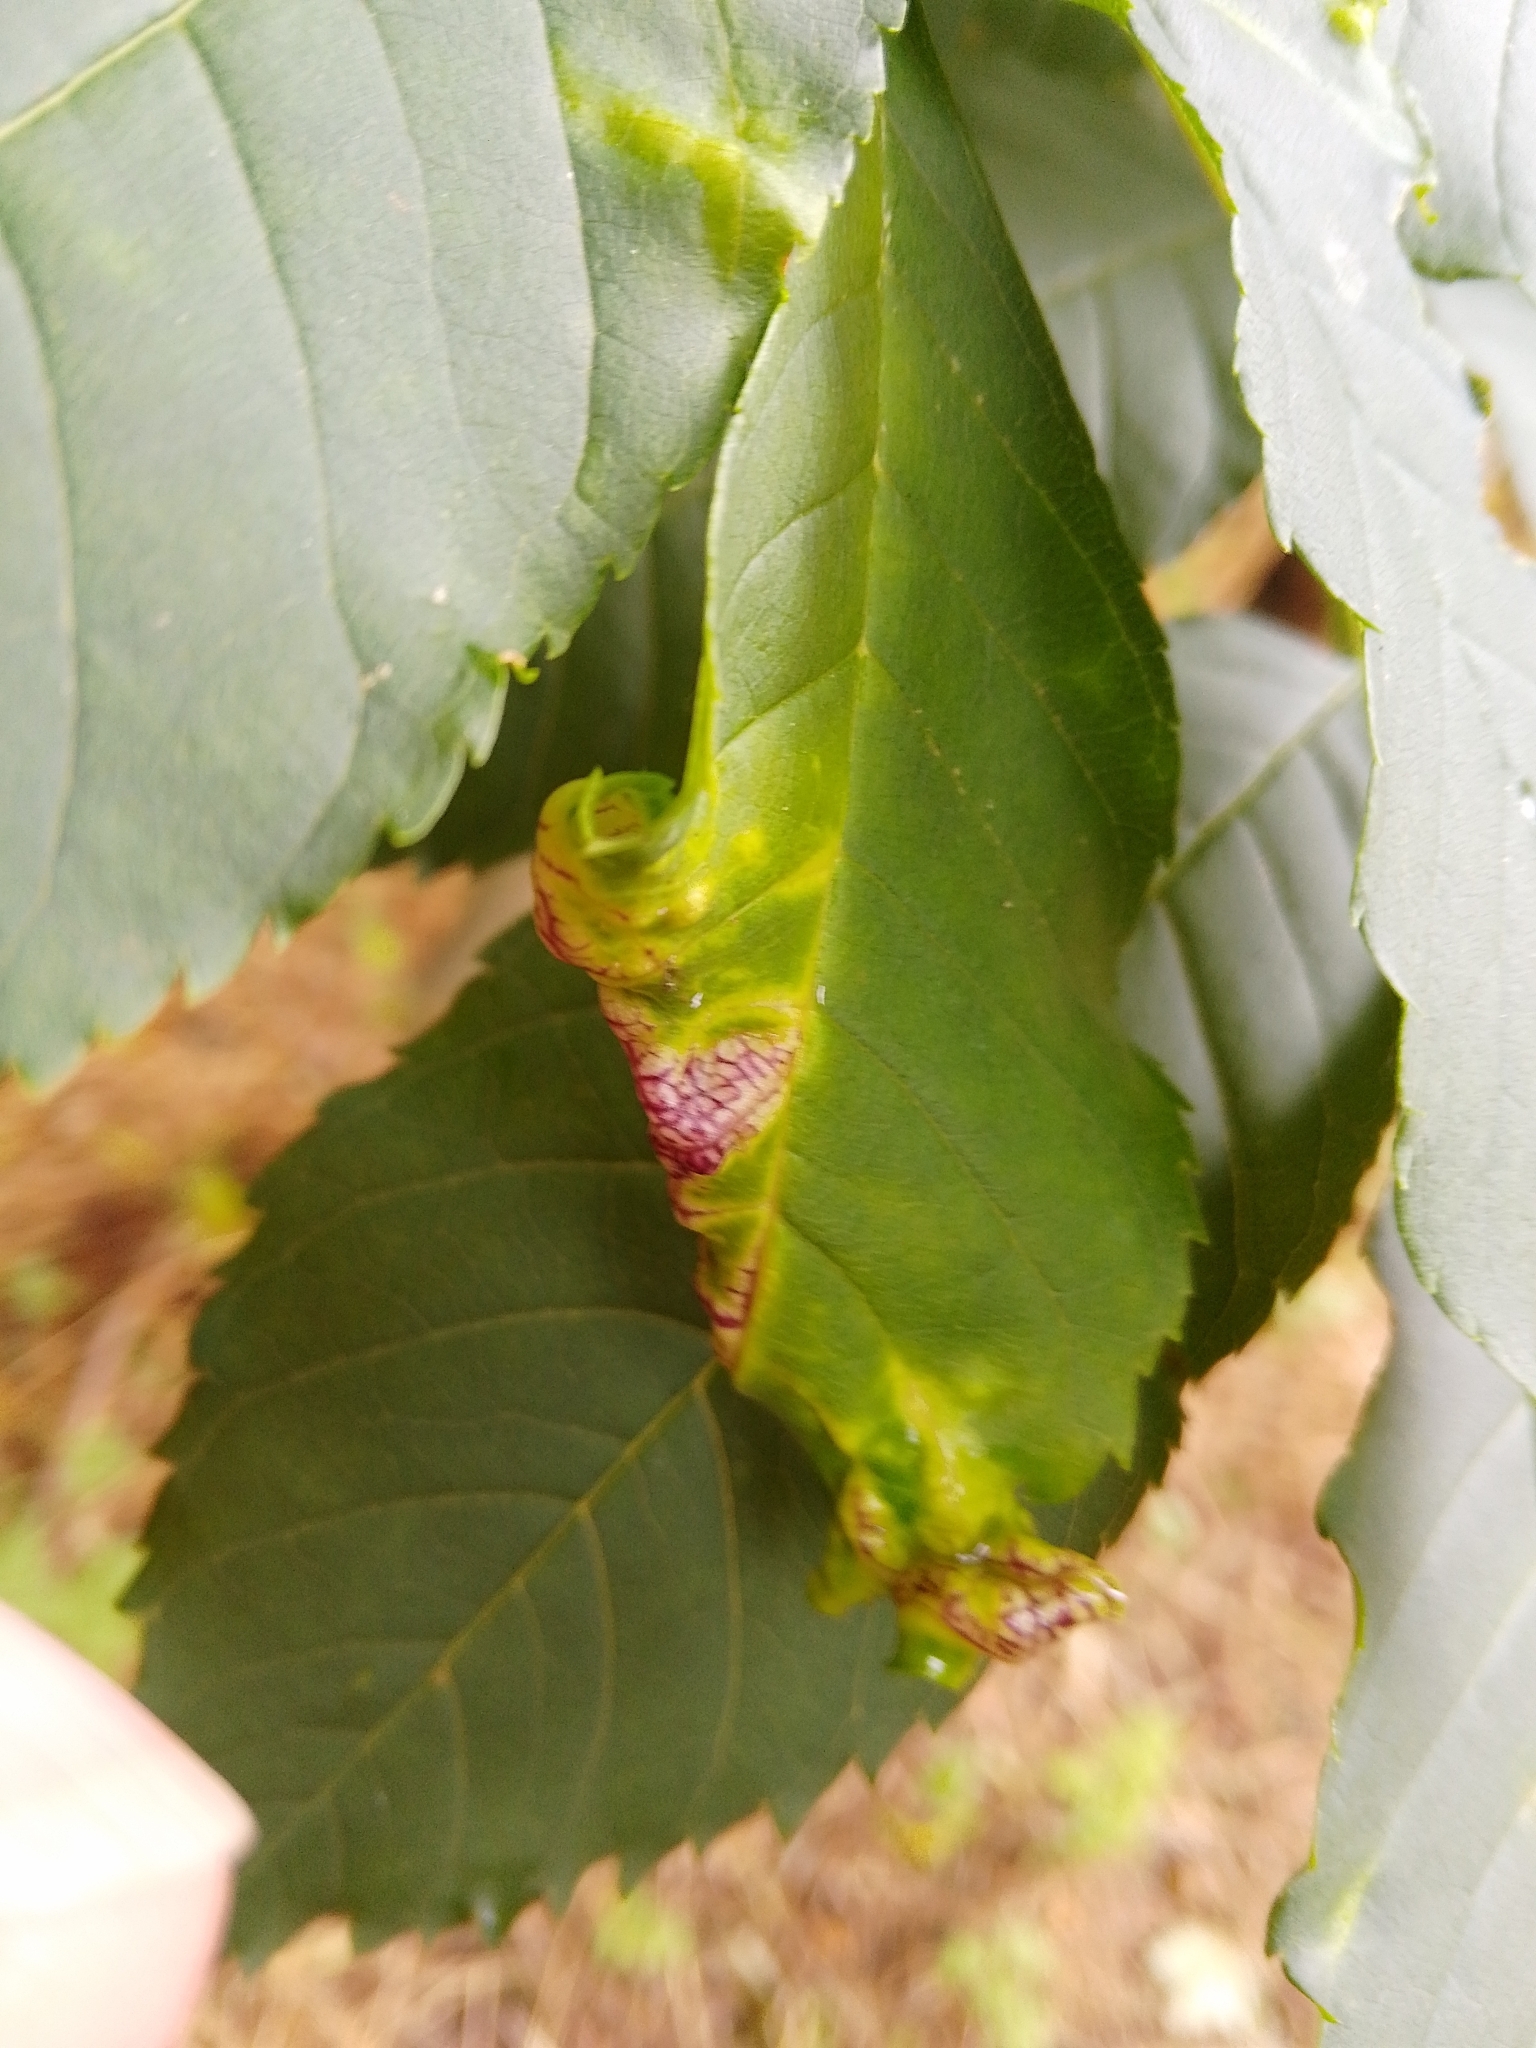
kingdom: Animalia
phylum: Arthropoda
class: Insecta
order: Hemiptera
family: Liviidae
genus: Psyllopsis
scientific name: Psyllopsis fraxini
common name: Jumping plant louse
